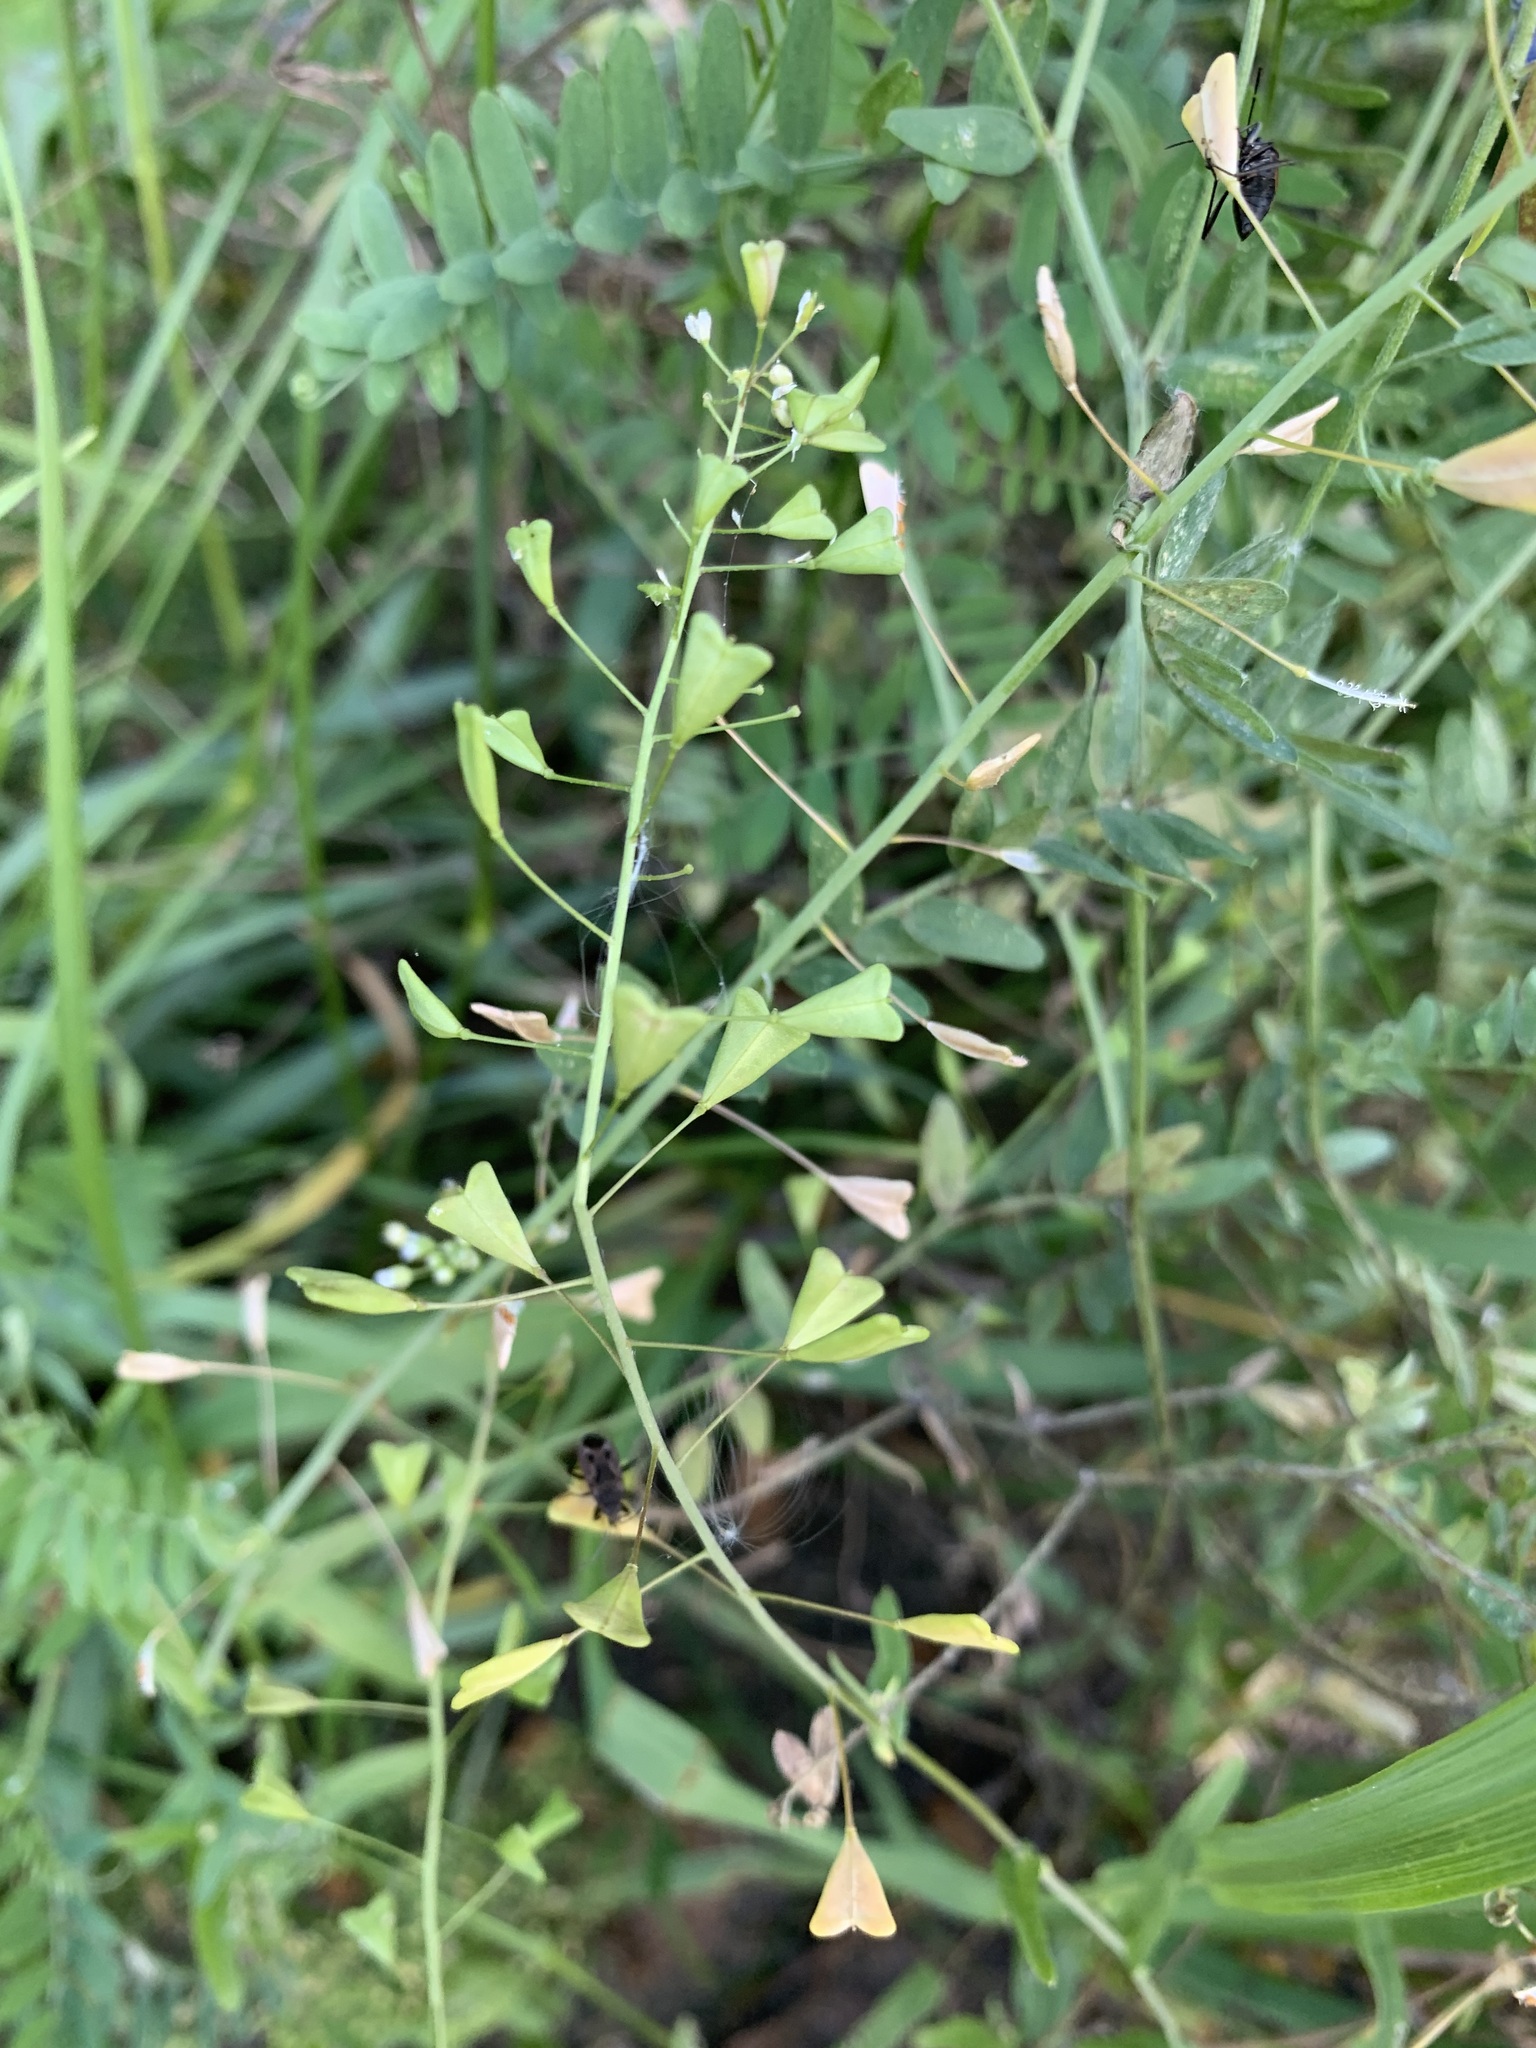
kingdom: Plantae
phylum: Tracheophyta
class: Magnoliopsida
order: Brassicales
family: Brassicaceae
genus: Capsella
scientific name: Capsella bursa-pastoris
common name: Shepherd's purse
